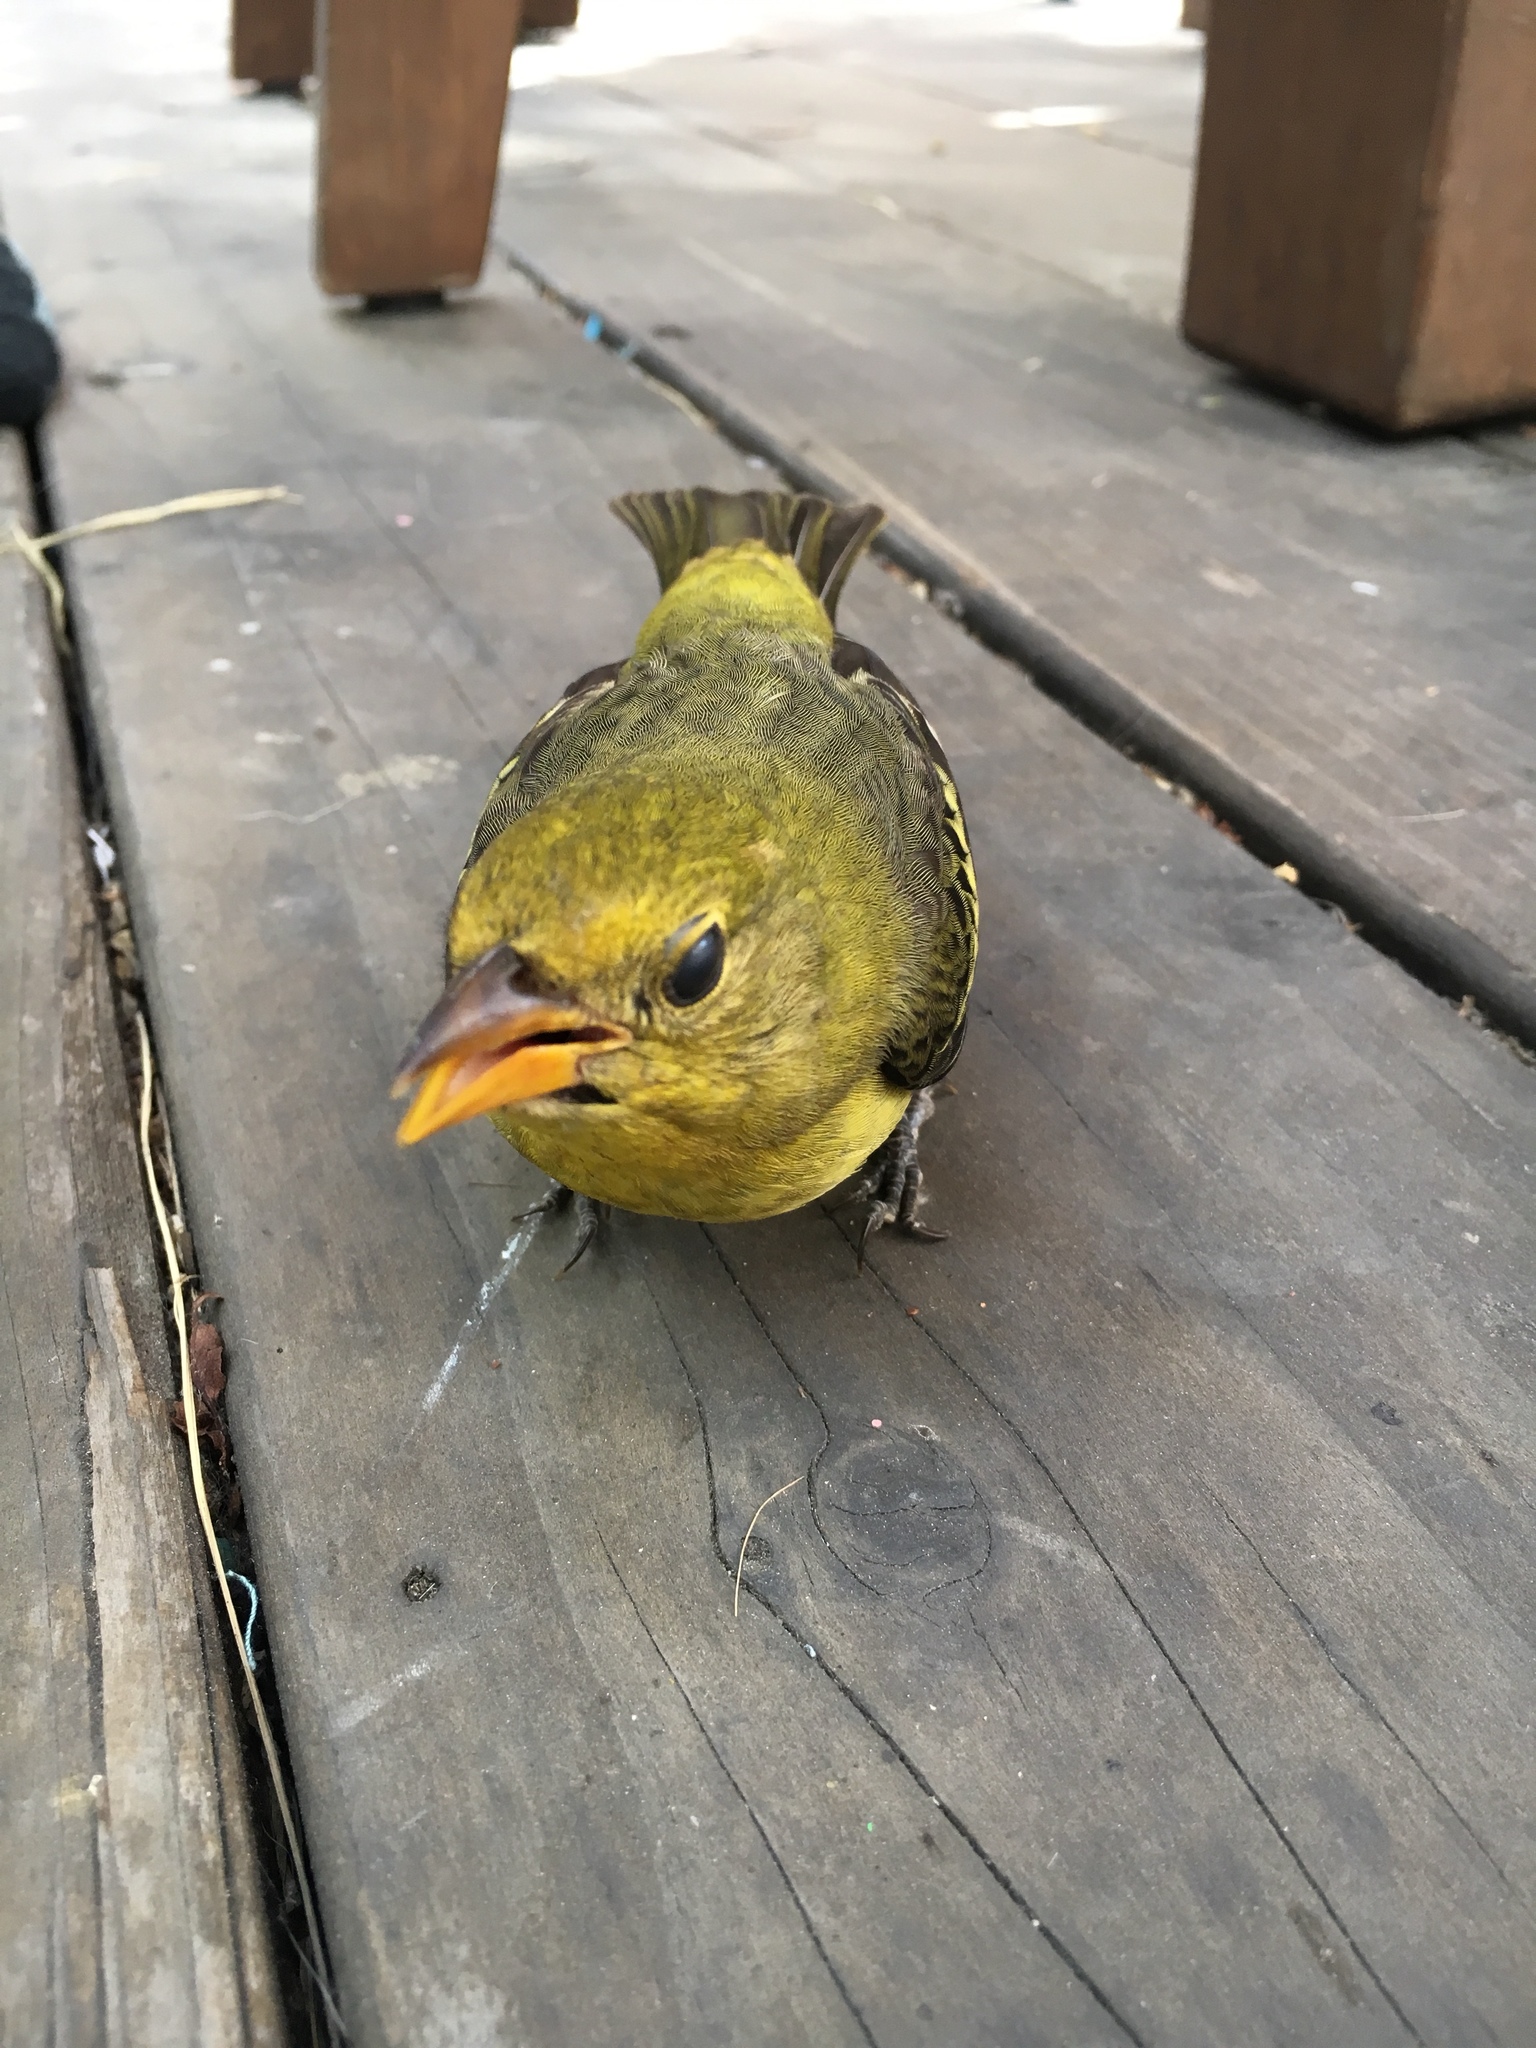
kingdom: Animalia
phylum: Chordata
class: Aves
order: Passeriformes
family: Cardinalidae
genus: Piranga
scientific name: Piranga ludoviciana
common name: Western tanager
